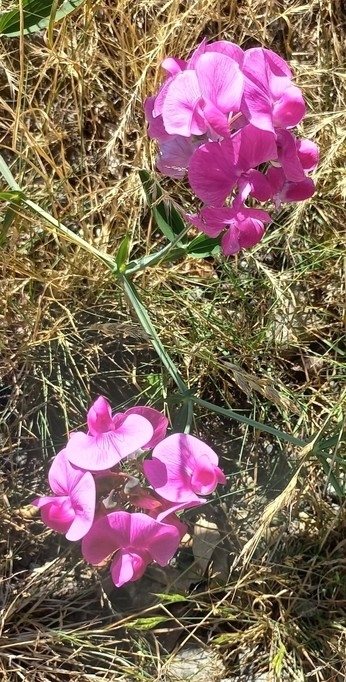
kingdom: Plantae
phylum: Tracheophyta
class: Magnoliopsida
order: Fabales
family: Fabaceae
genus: Lathyrus
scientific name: Lathyrus latifolius
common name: Perennial pea
